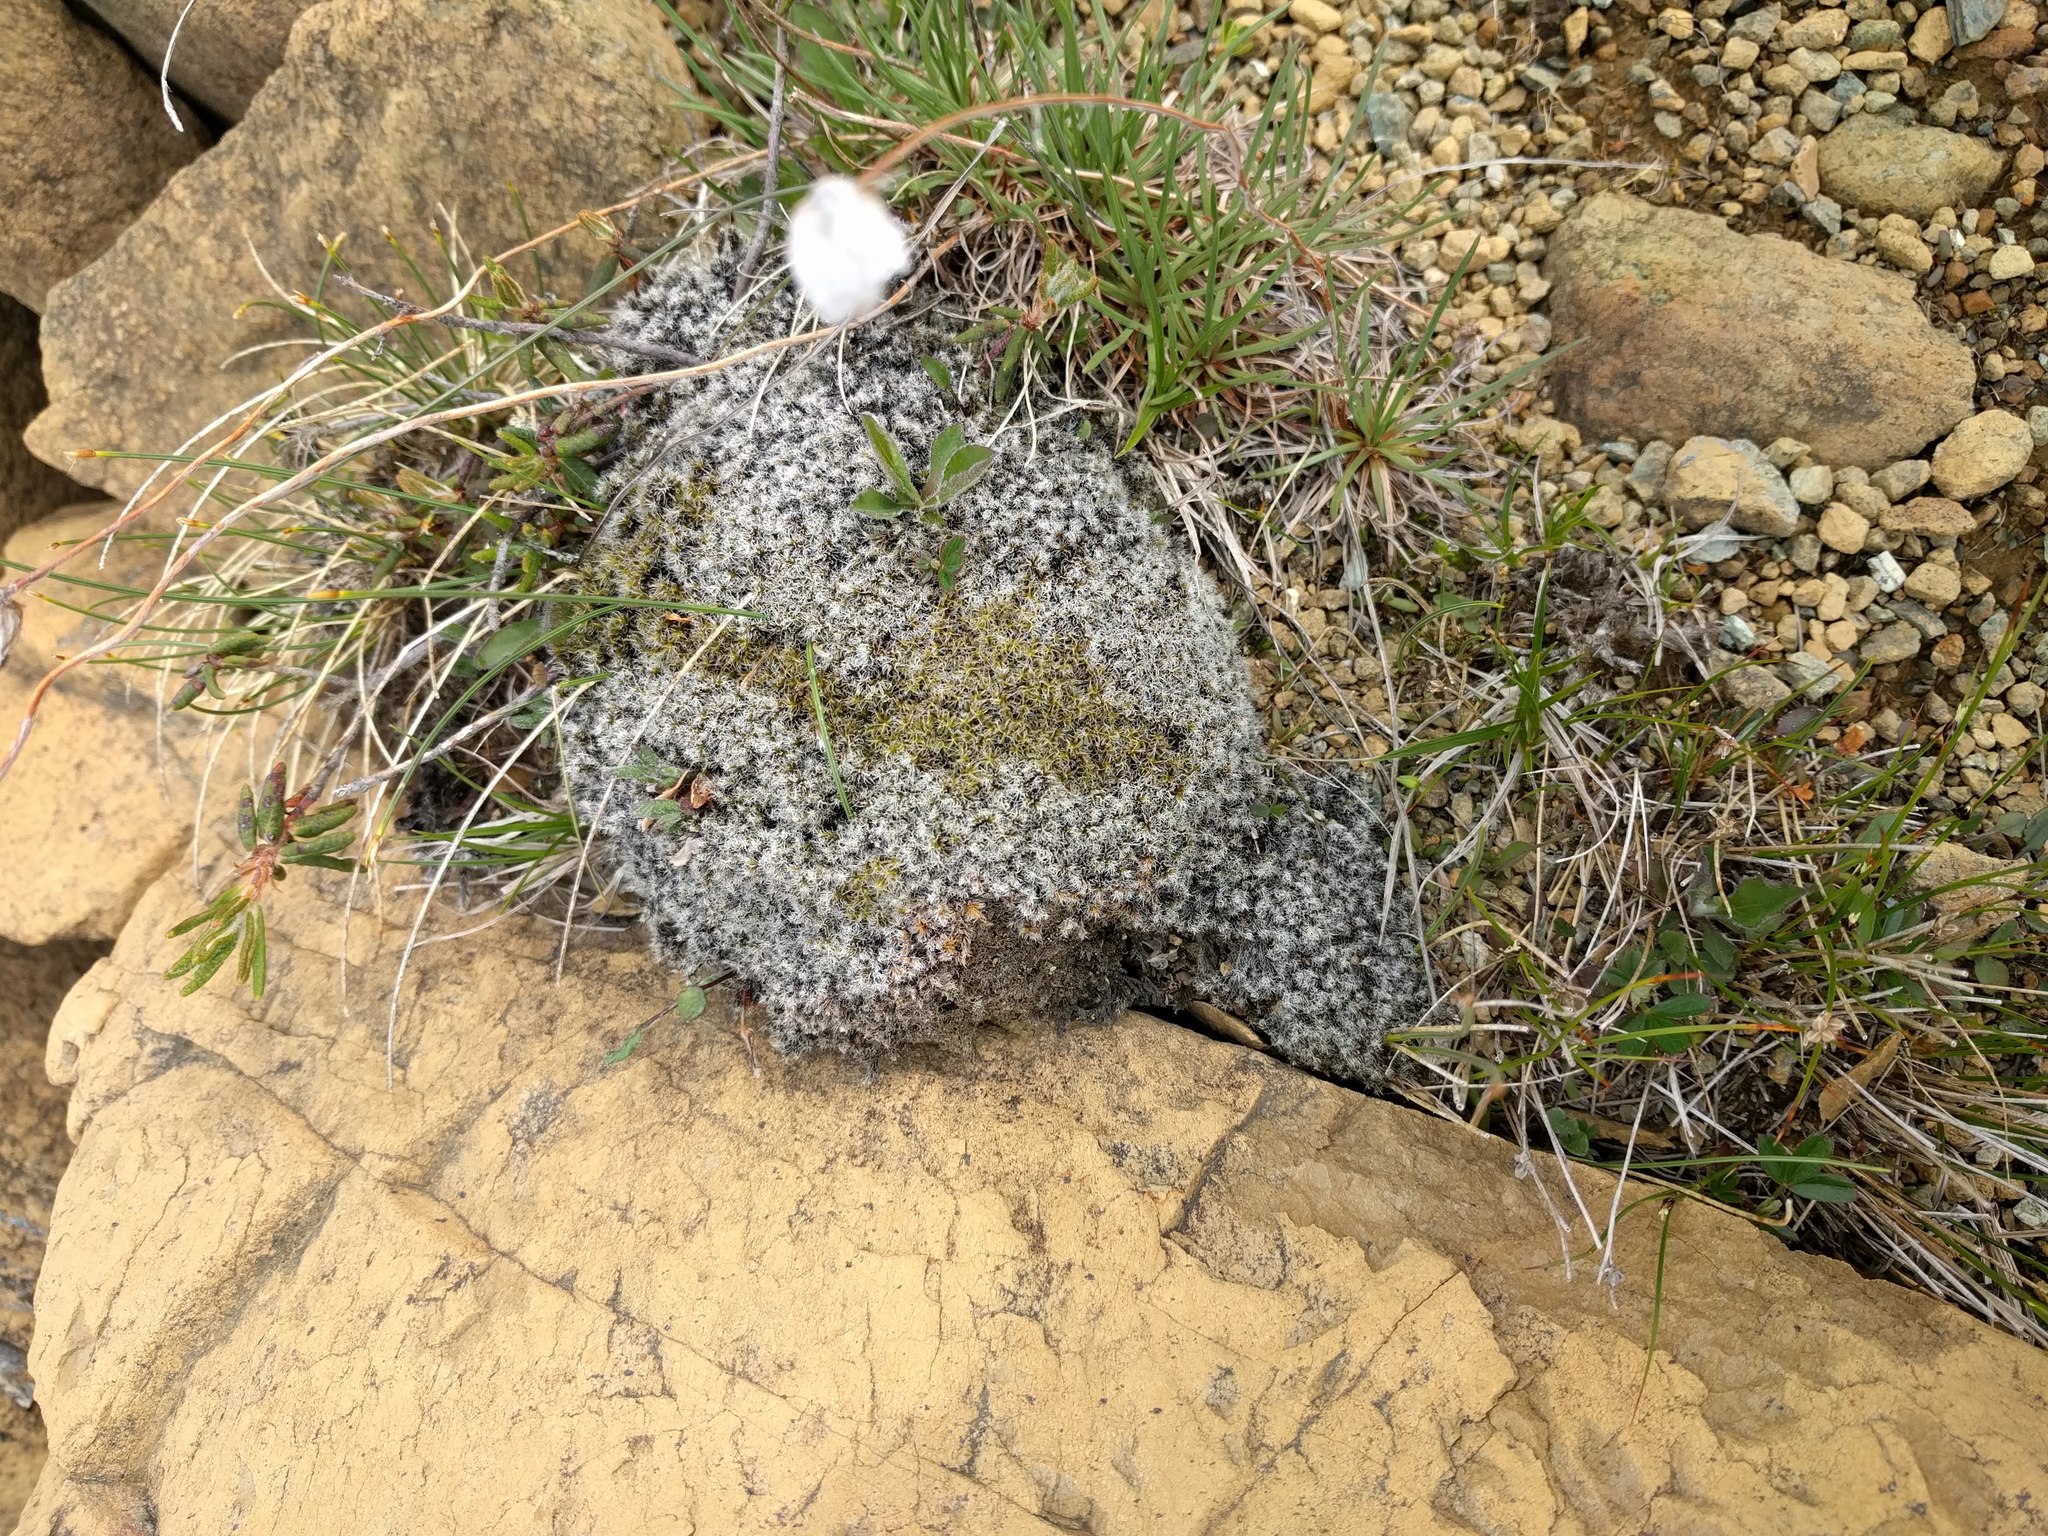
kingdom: Plantae
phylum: Bryophyta
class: Bryopsida
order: Grimmiales
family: Grimmiaceae
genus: Racomitrium
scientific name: Racomitrium lanuginosum
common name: Hoary rock moss
